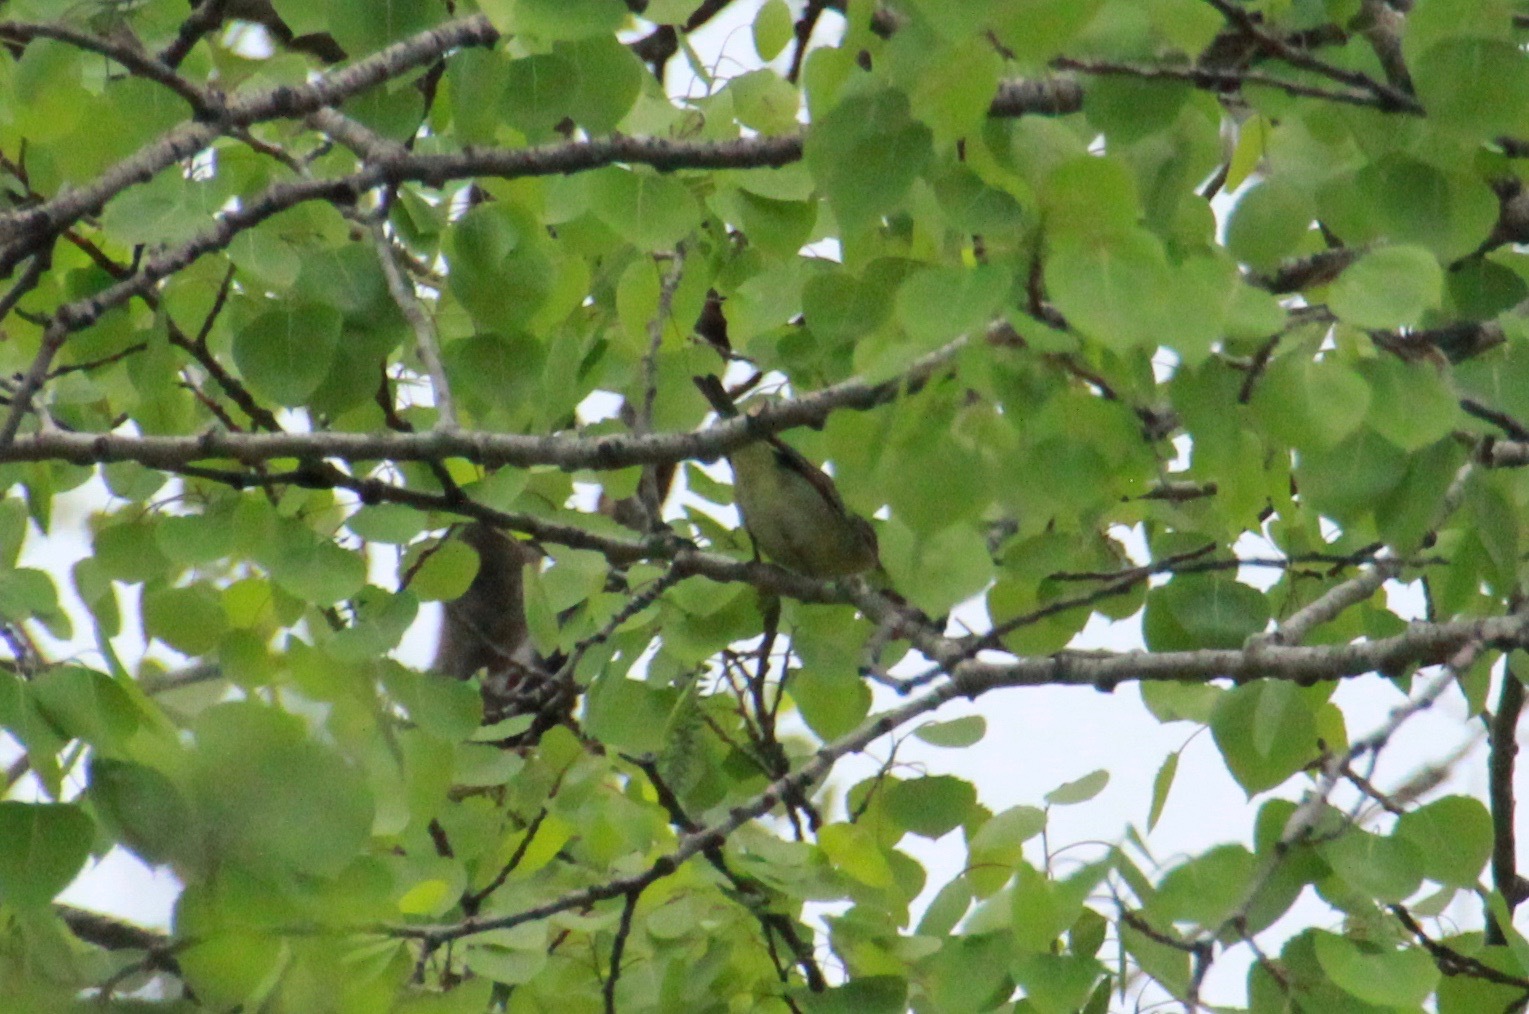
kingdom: Animalia
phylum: Chordata
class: Aves
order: Passeriformes
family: Vireonidae
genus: Vireo
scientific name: Vireo philadelphicus
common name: Philadelphia vireo
